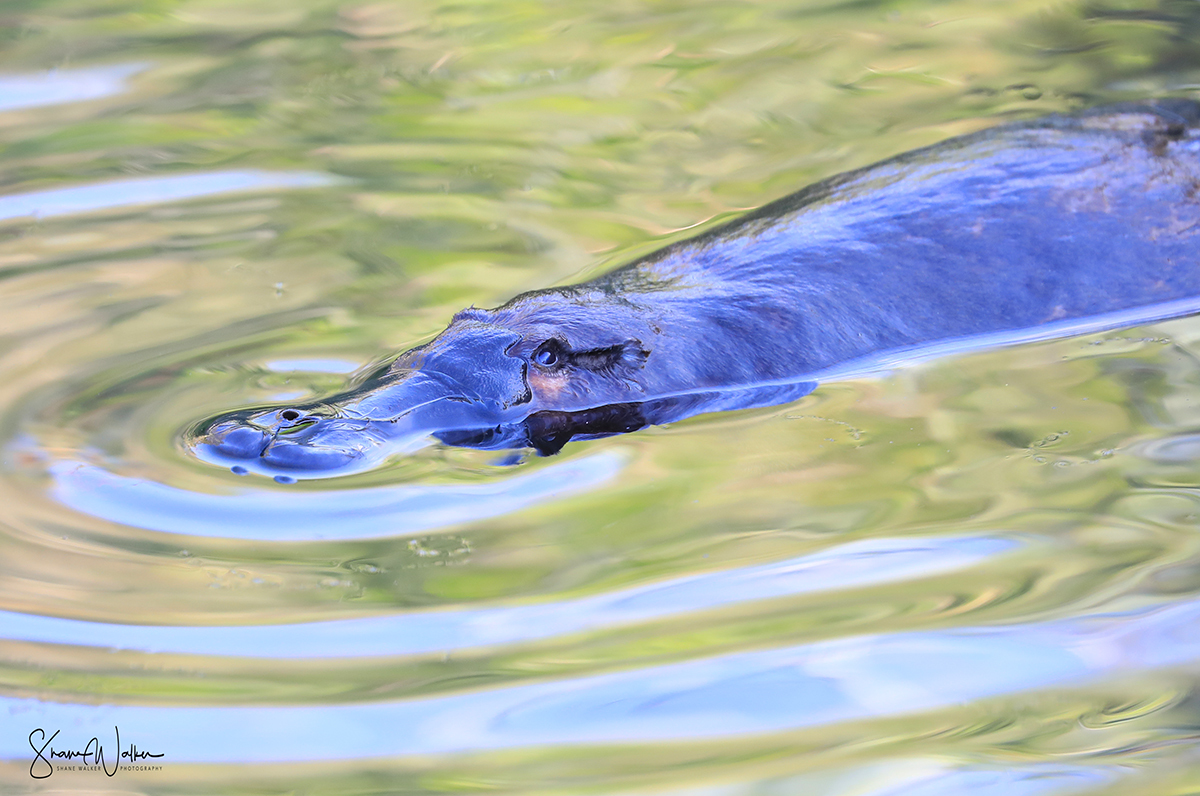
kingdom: Animalia
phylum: Chordata
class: Mammalia
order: Monotremata
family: Ornithorhynchidae
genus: Ornithorhynchus
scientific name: Ornithorhynchus anatinus
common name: Platypus
